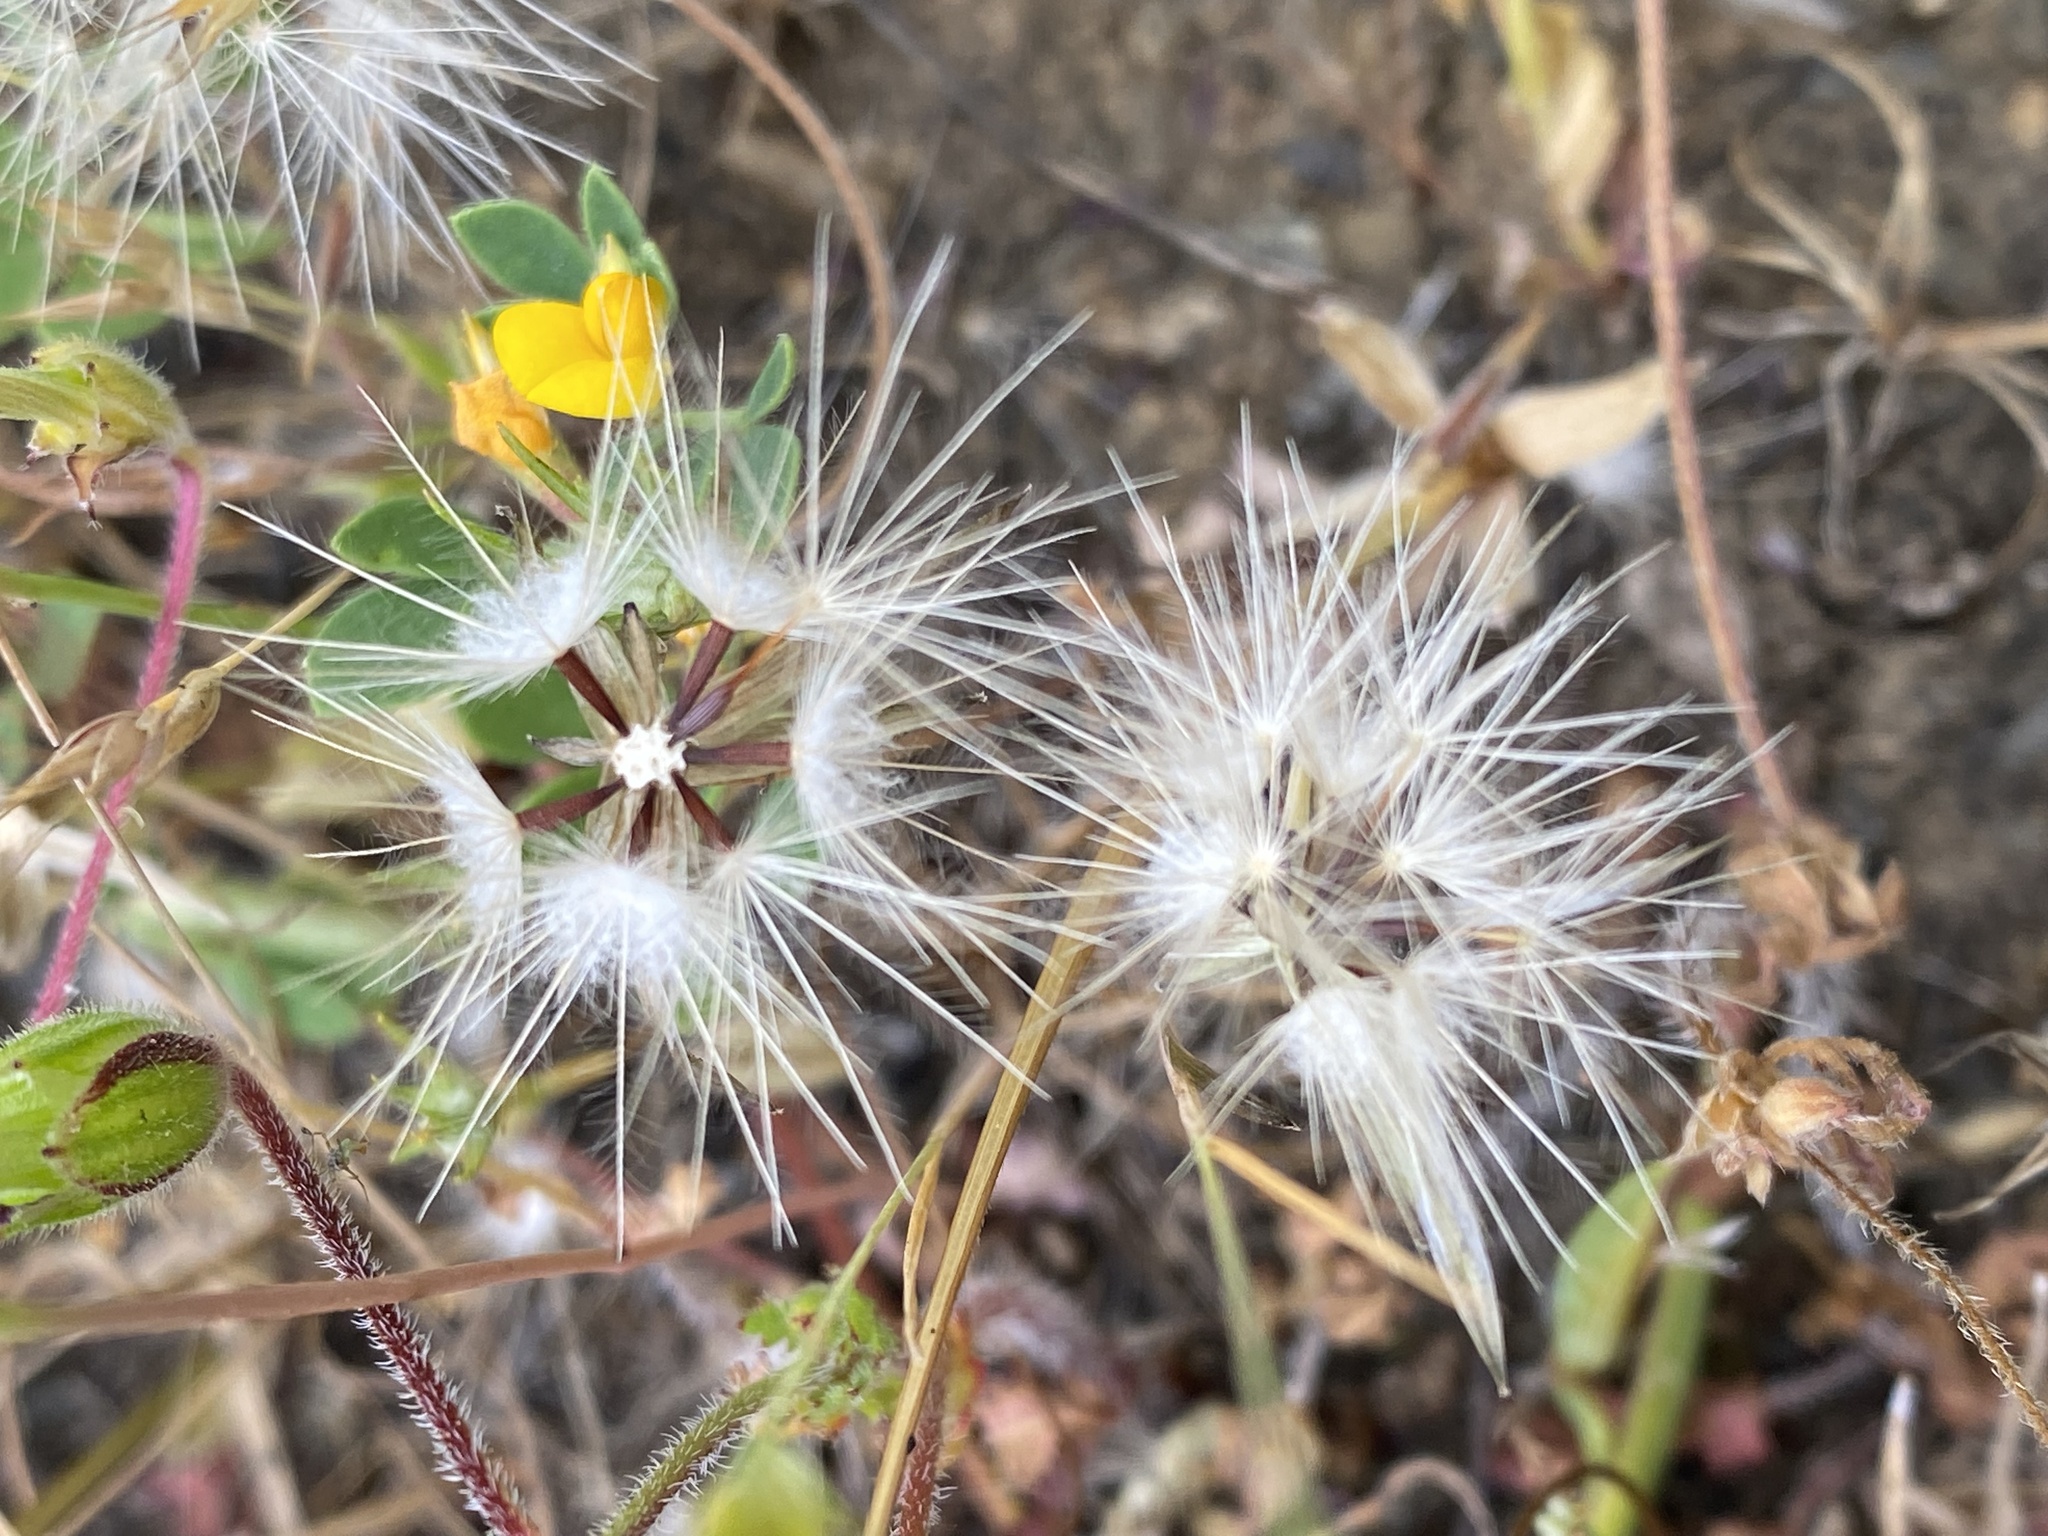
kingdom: Plantae
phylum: Tracheophyta
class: Magnoliopsida
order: Asterales
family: Asteraceae
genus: Hypochaeris
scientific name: Hypochaeris glabra
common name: Smooth catsear
